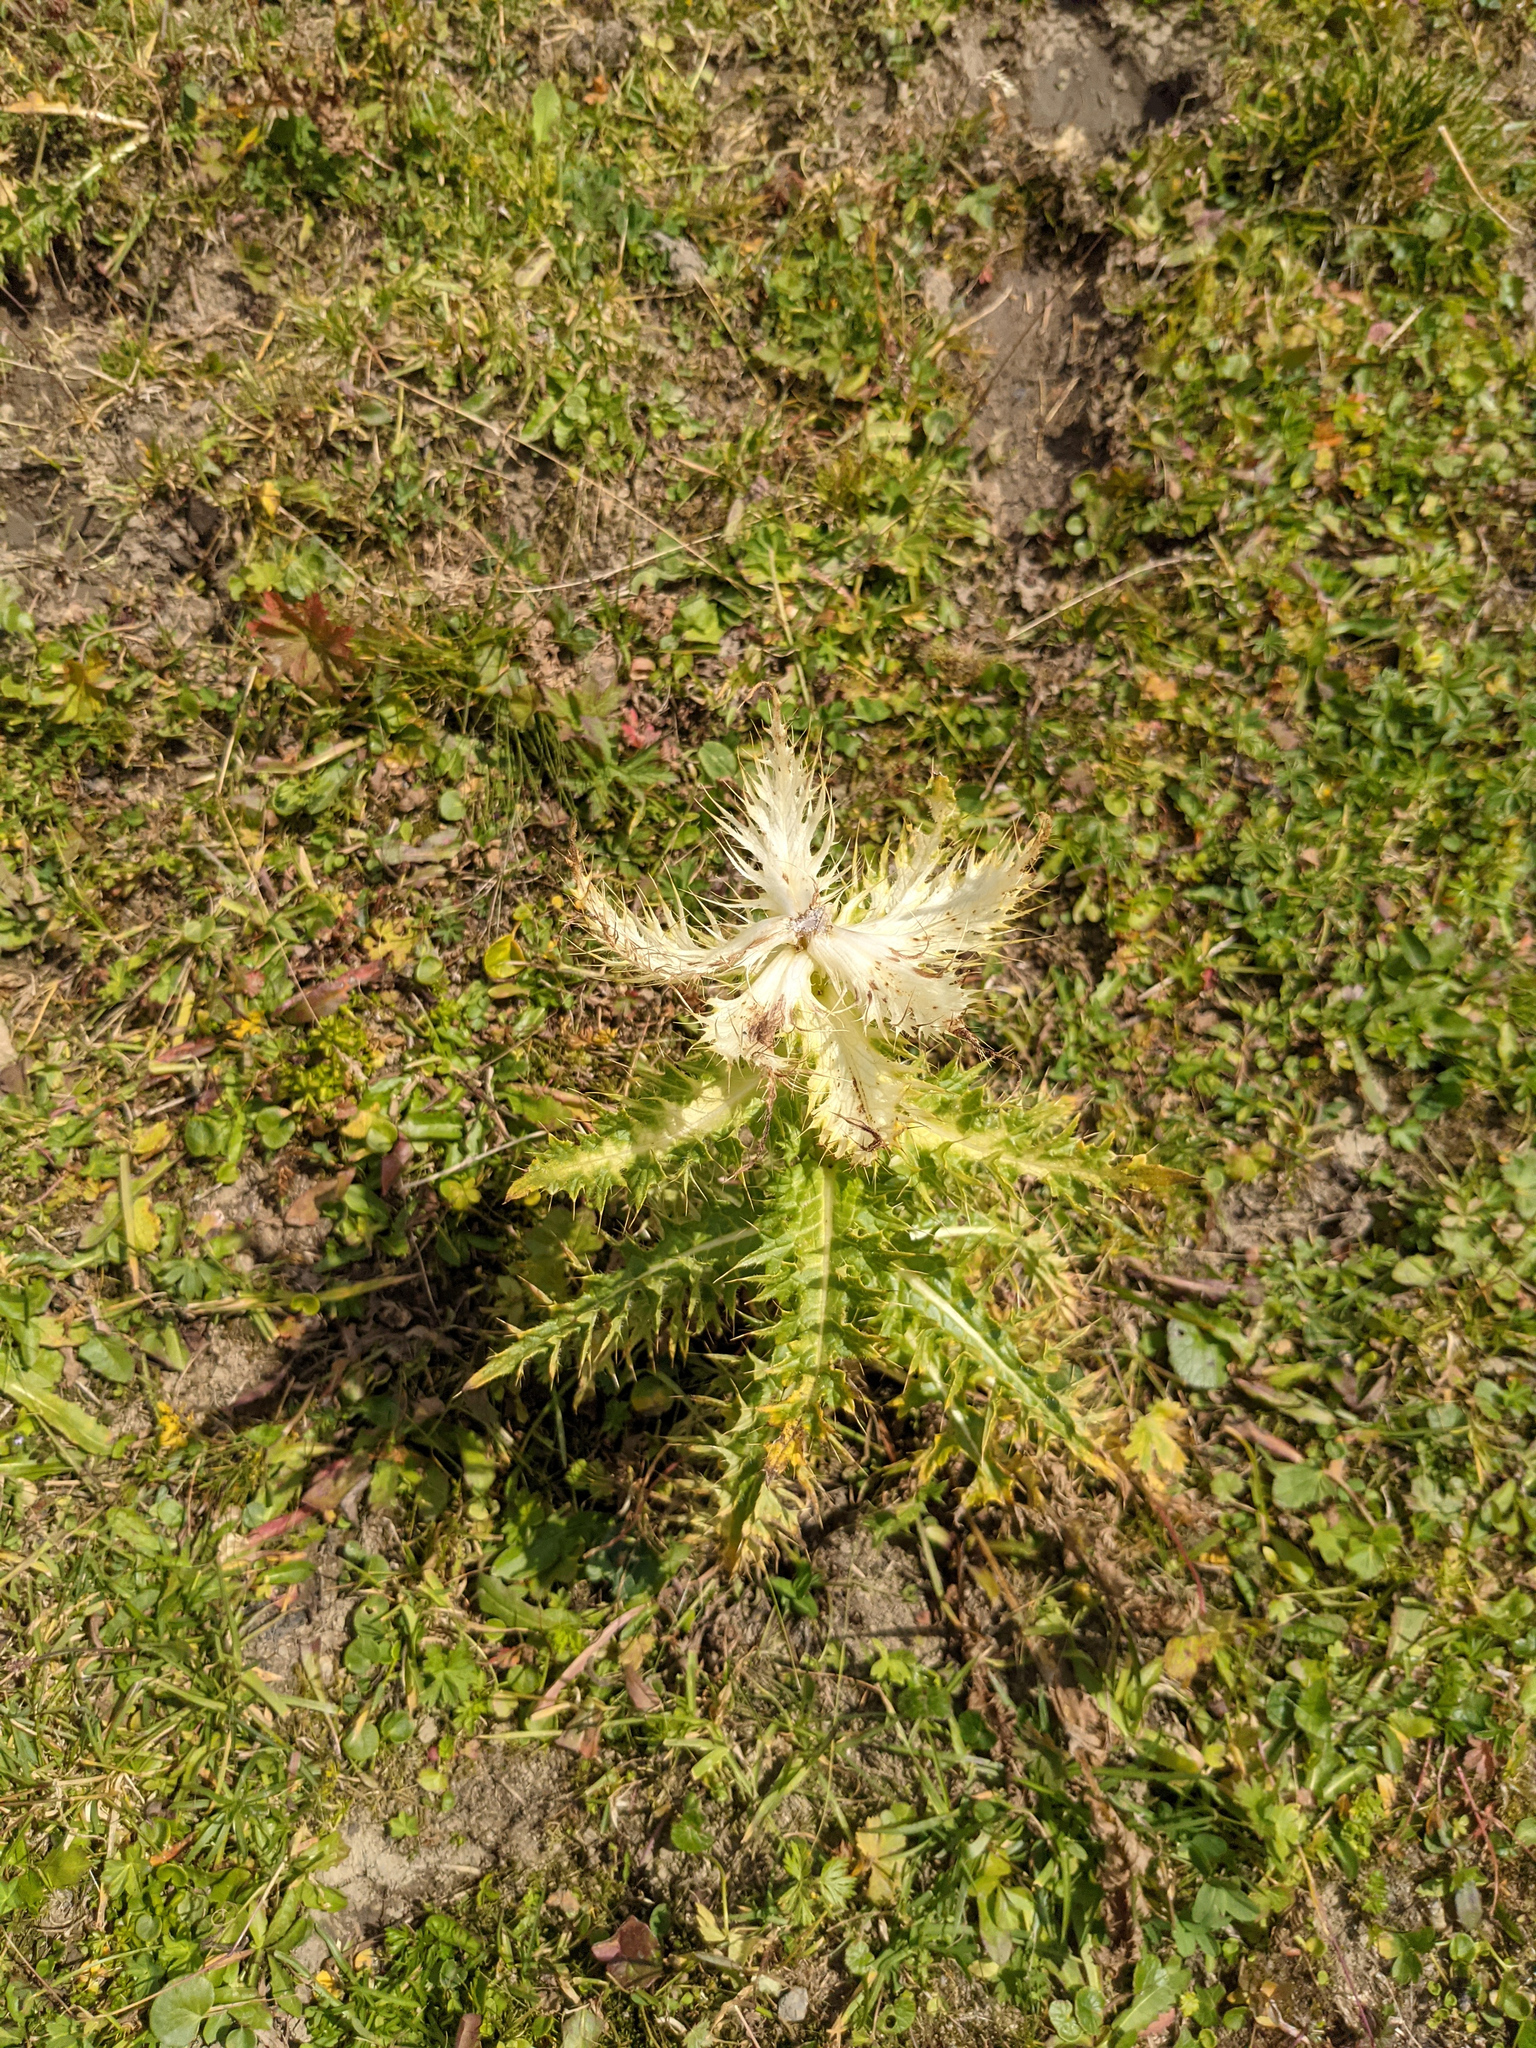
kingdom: Plantae
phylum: Tracheophyta
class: Magnoliopsida
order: Asterales
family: Asteraceae
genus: Cirsium
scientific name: Cirsium spinosissimum
